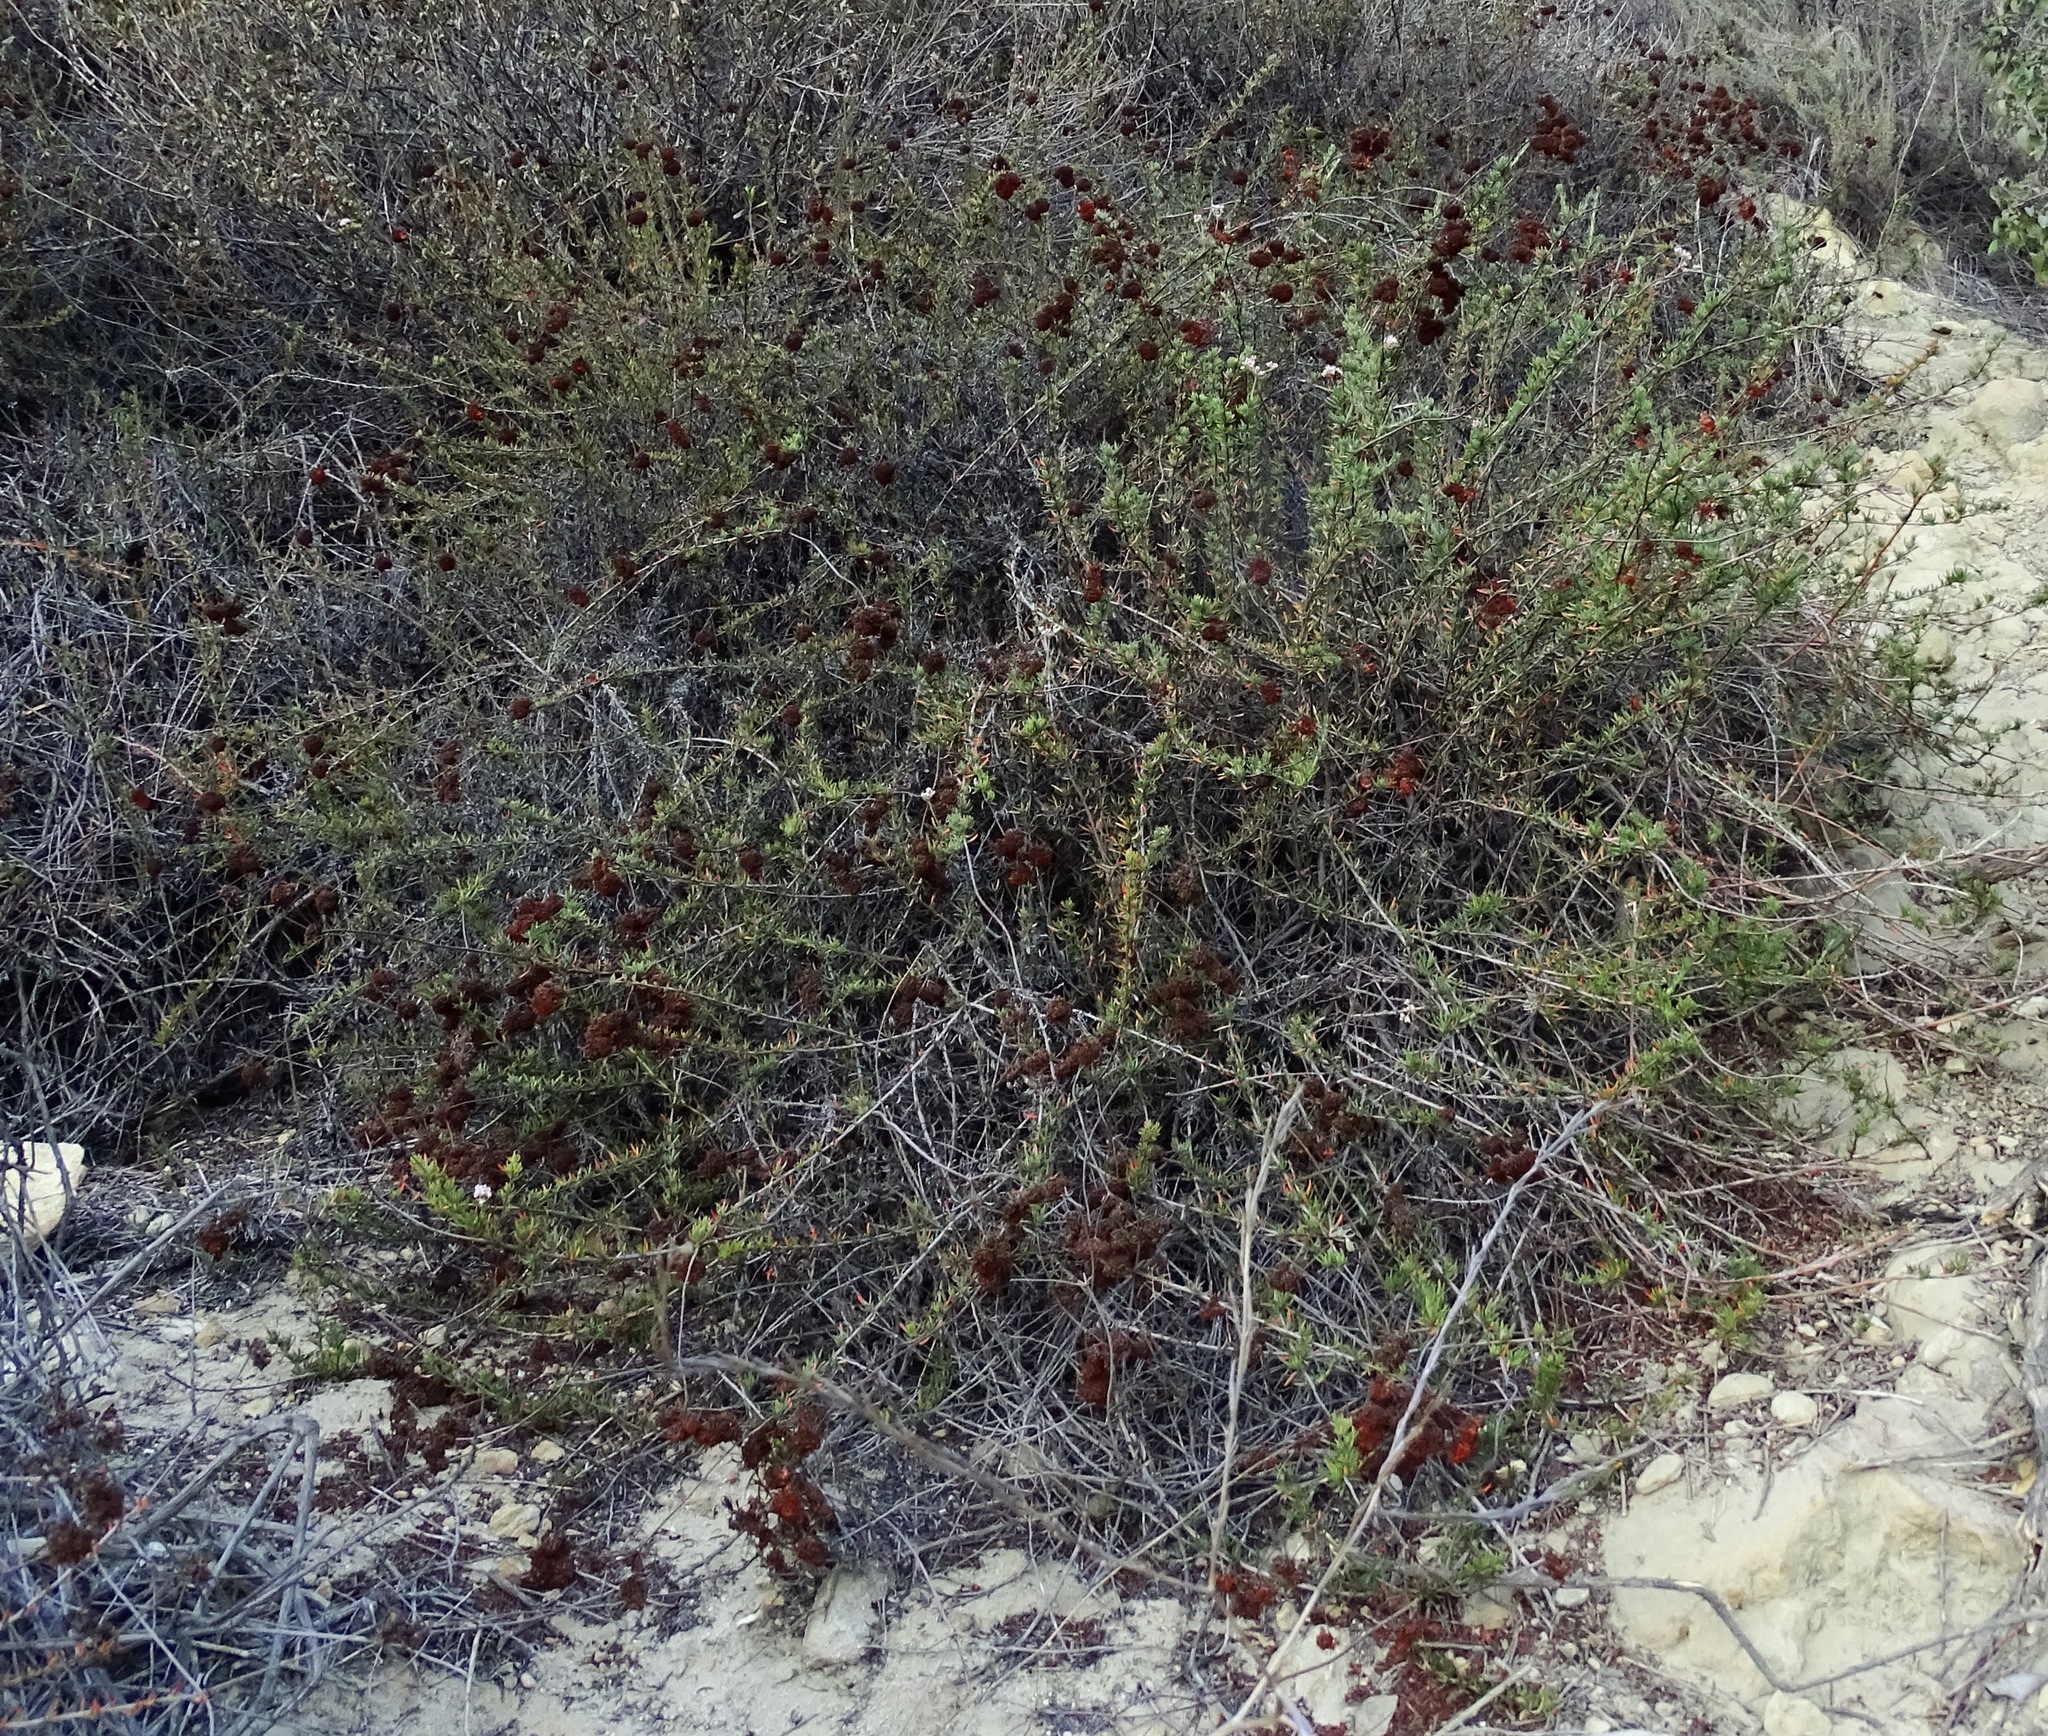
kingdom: Plantae
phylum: Tracheophyta
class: Magnoliopsida
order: Caryophyllales
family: Polygonaceae
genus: Eriogonum
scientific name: Eriogonum fasciculatum
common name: California wild buckwheat
